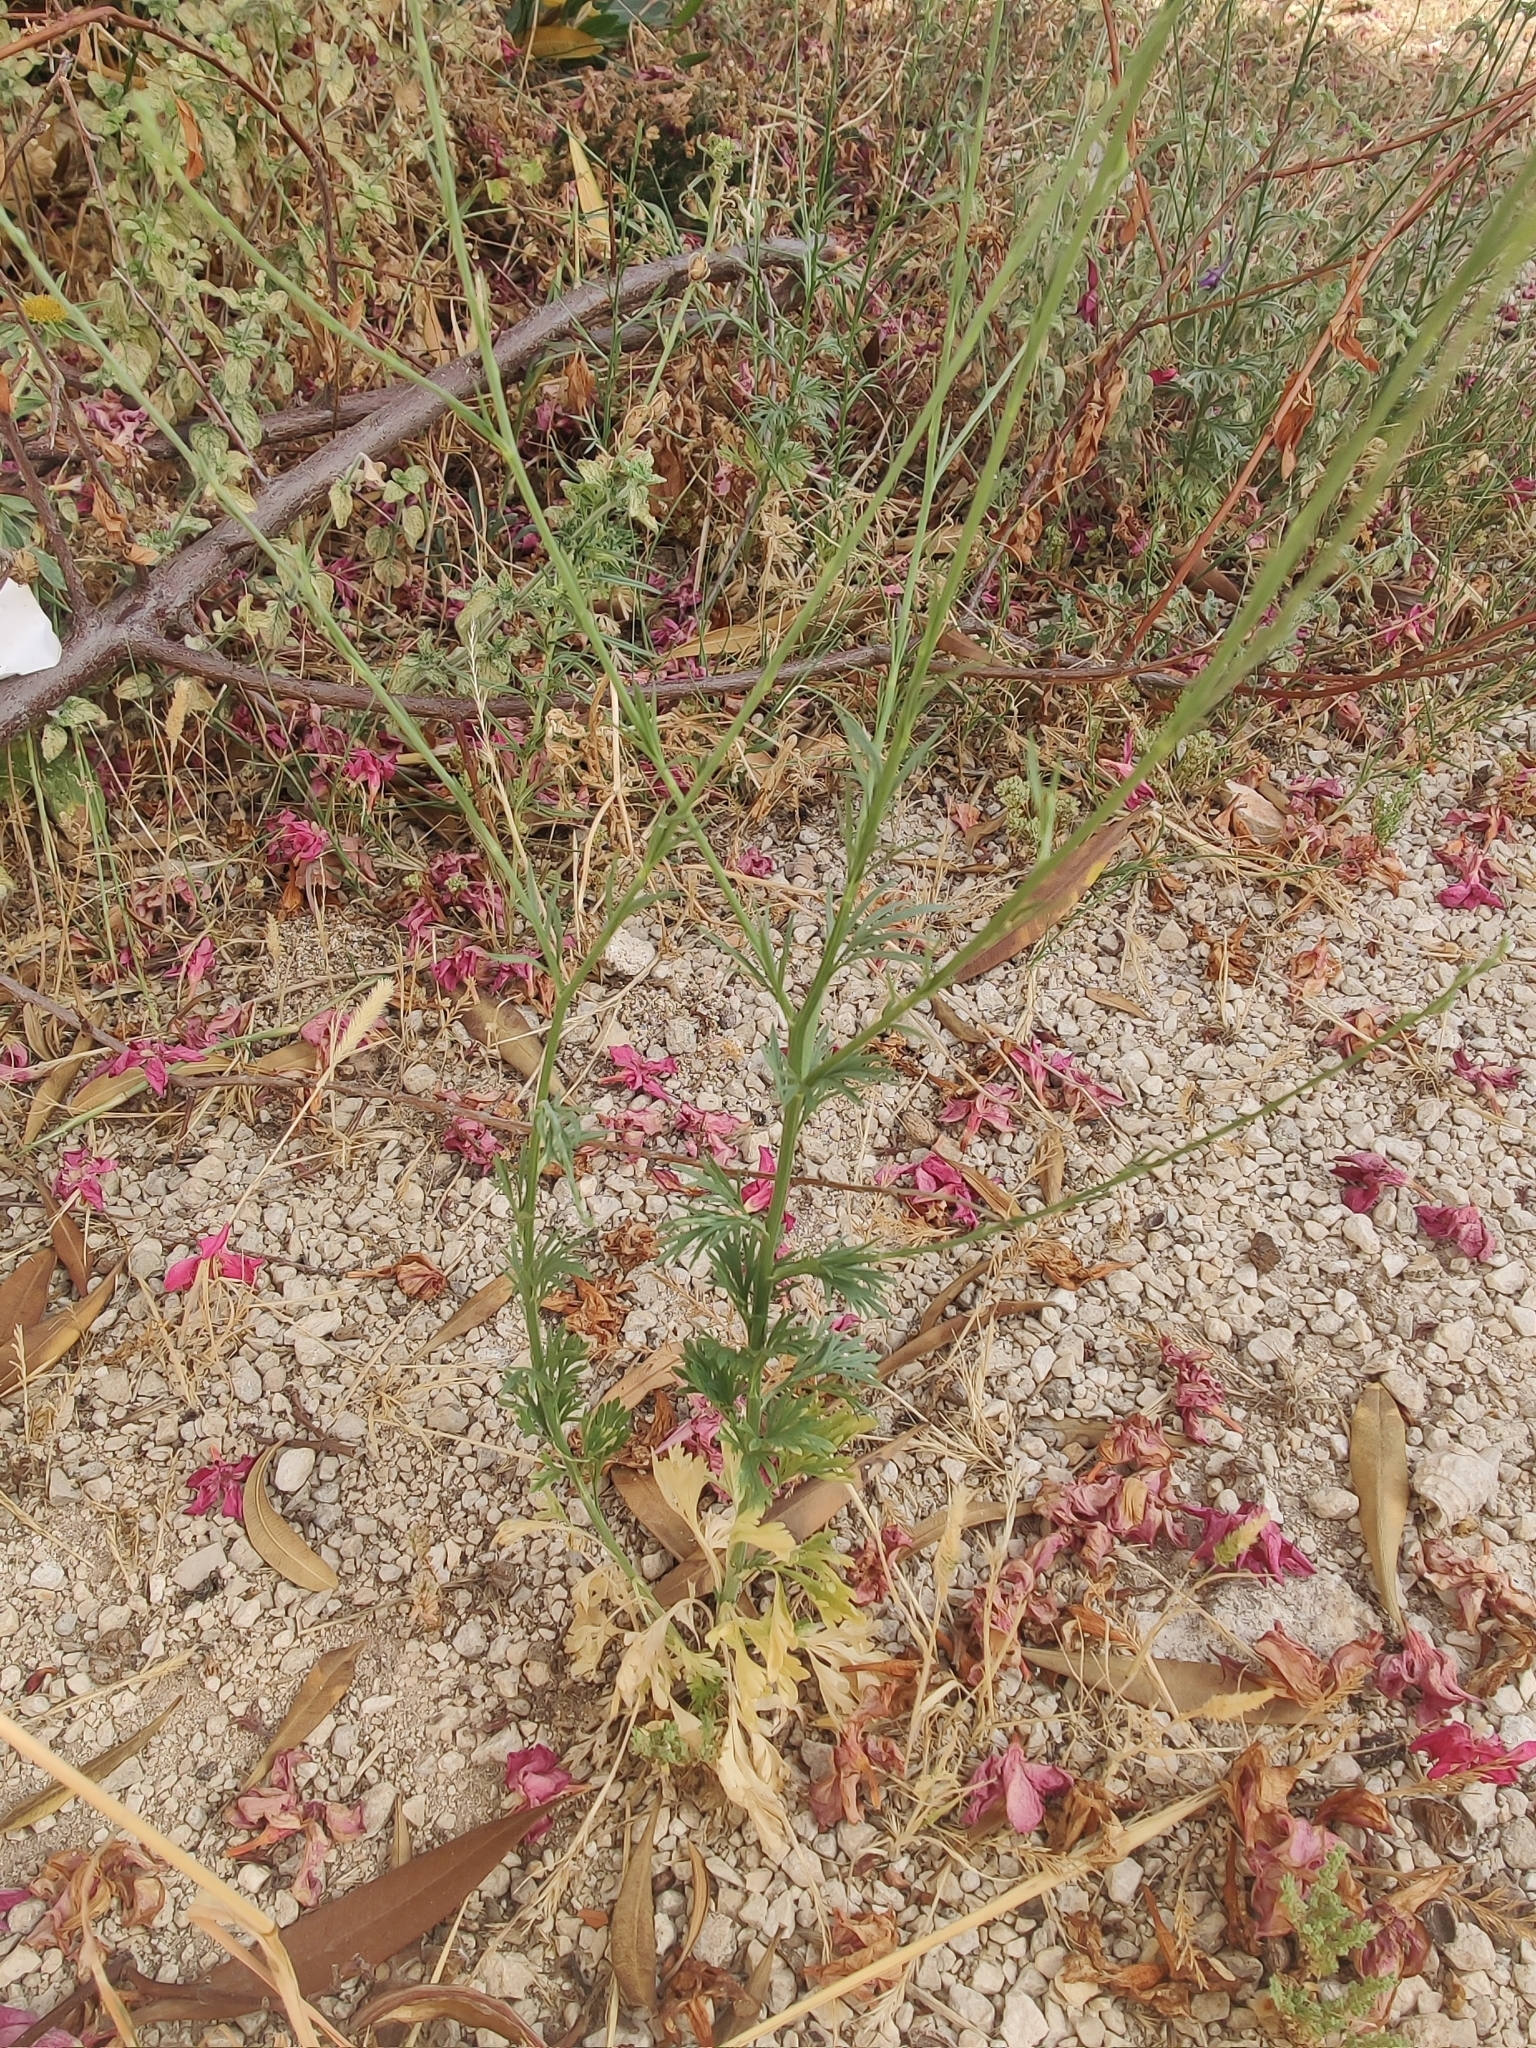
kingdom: Plantae
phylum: Tracheophyta
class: Magnoliopsida
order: Ranunculales
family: Ranunculaceae
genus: Delphinium
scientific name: Delphinium peregrinum
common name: Violet larkspur
